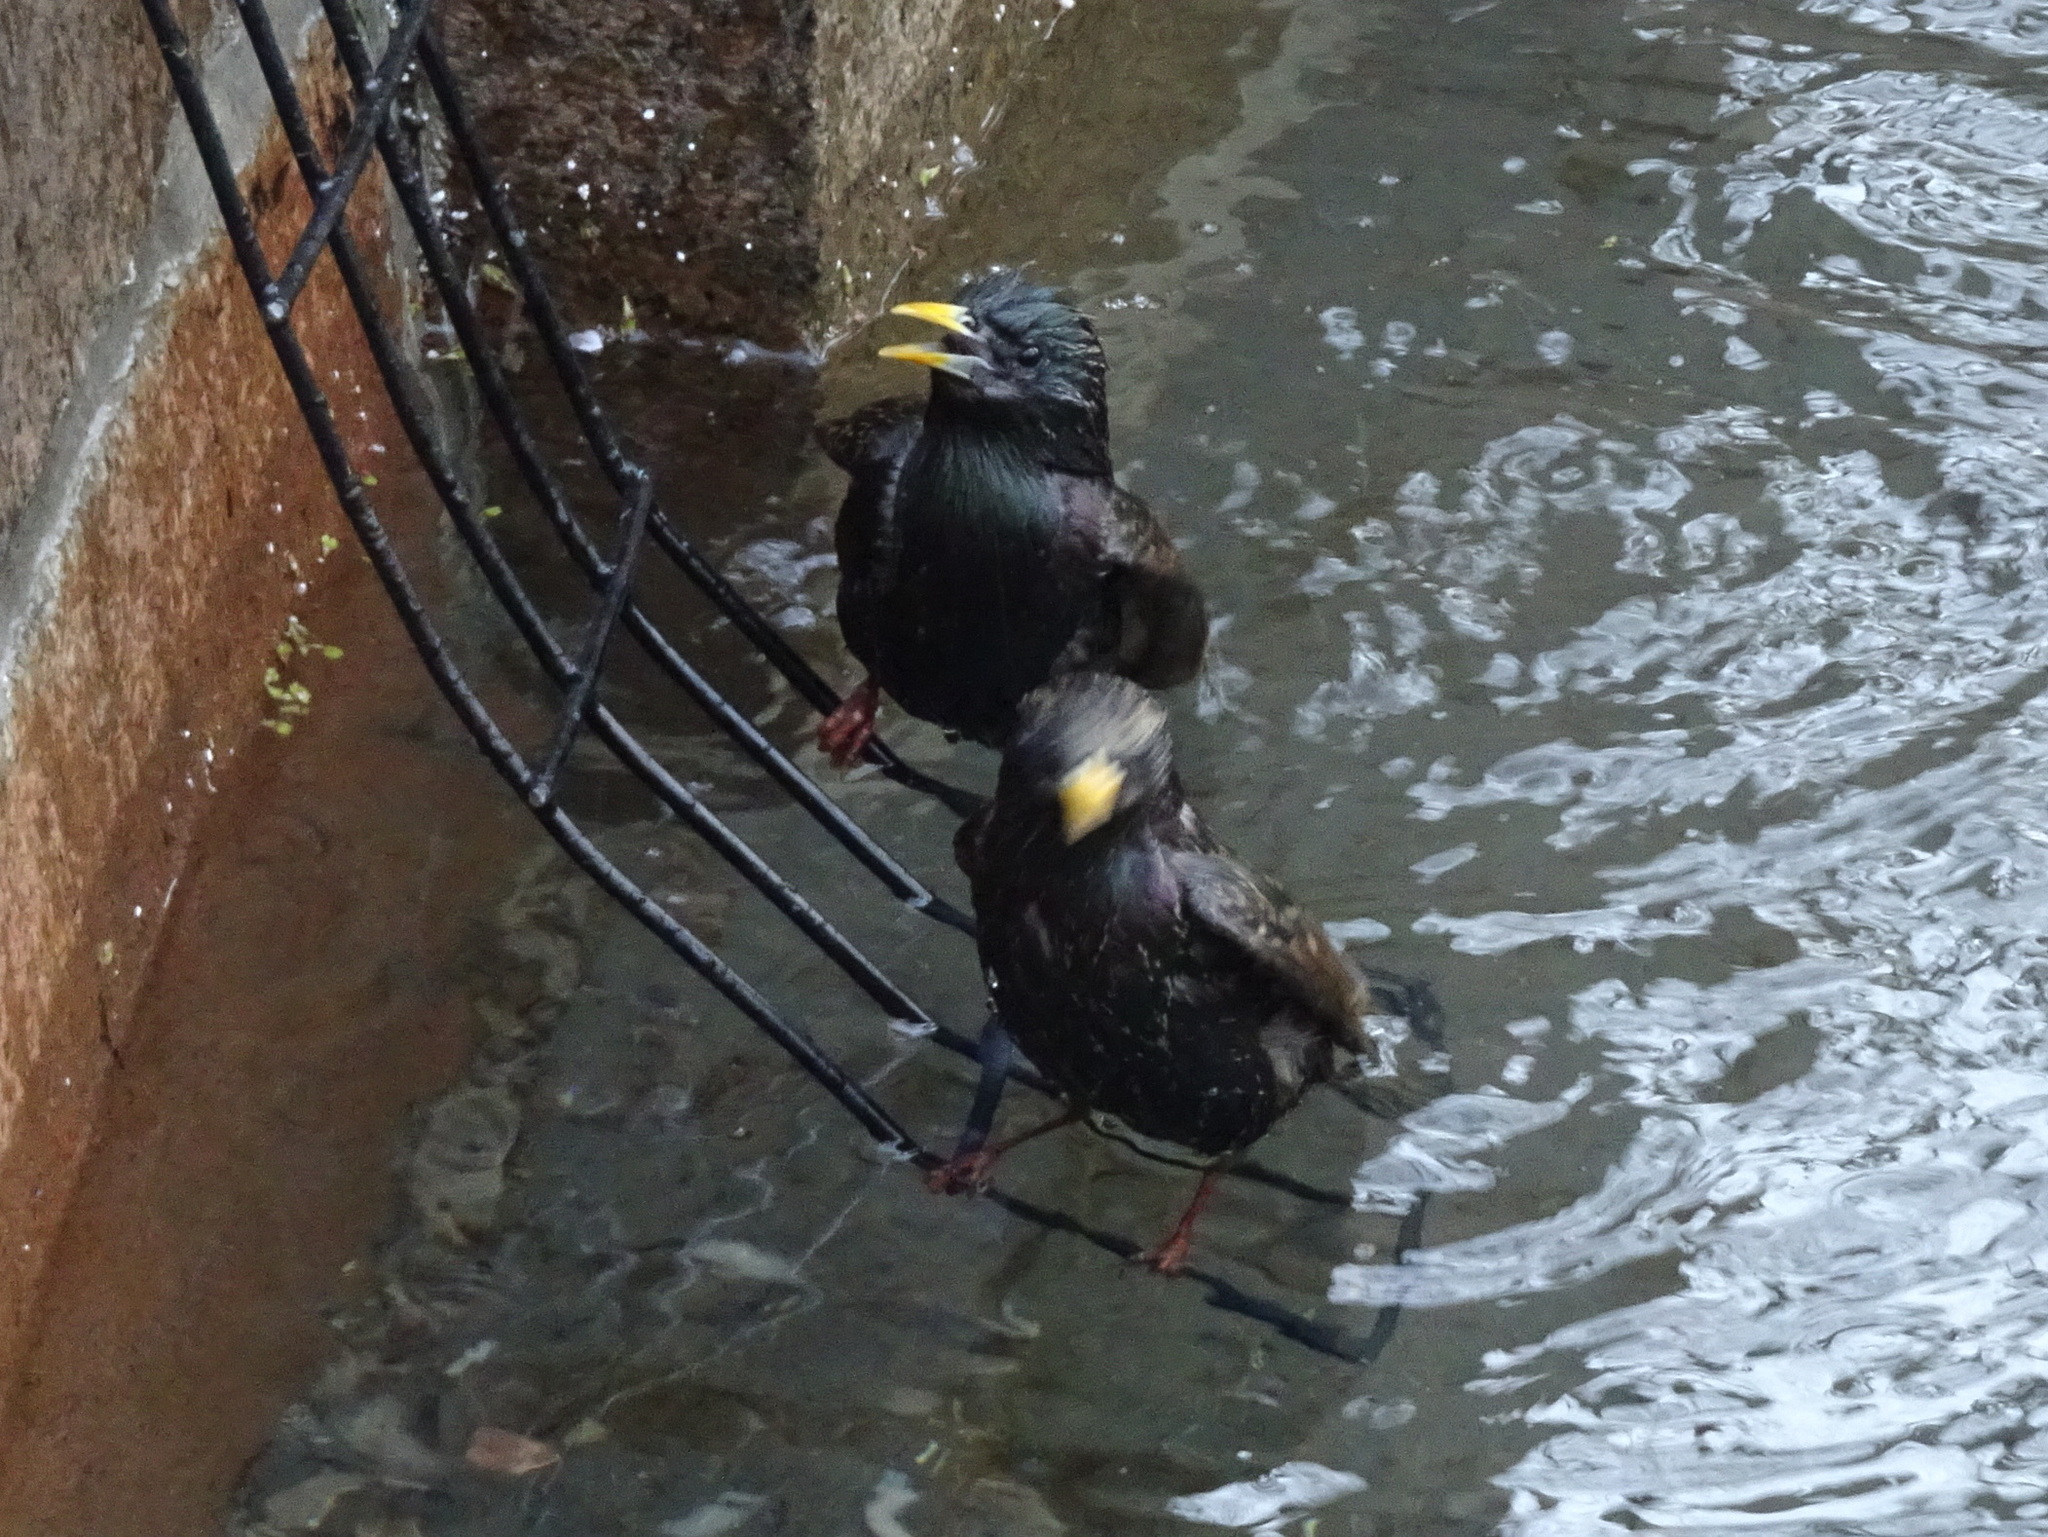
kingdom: Animalia
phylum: Chordata
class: Aves
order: Passeriformes
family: Sturnidae
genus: Sturnus
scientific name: Sturnus vulgaris
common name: Common starling
